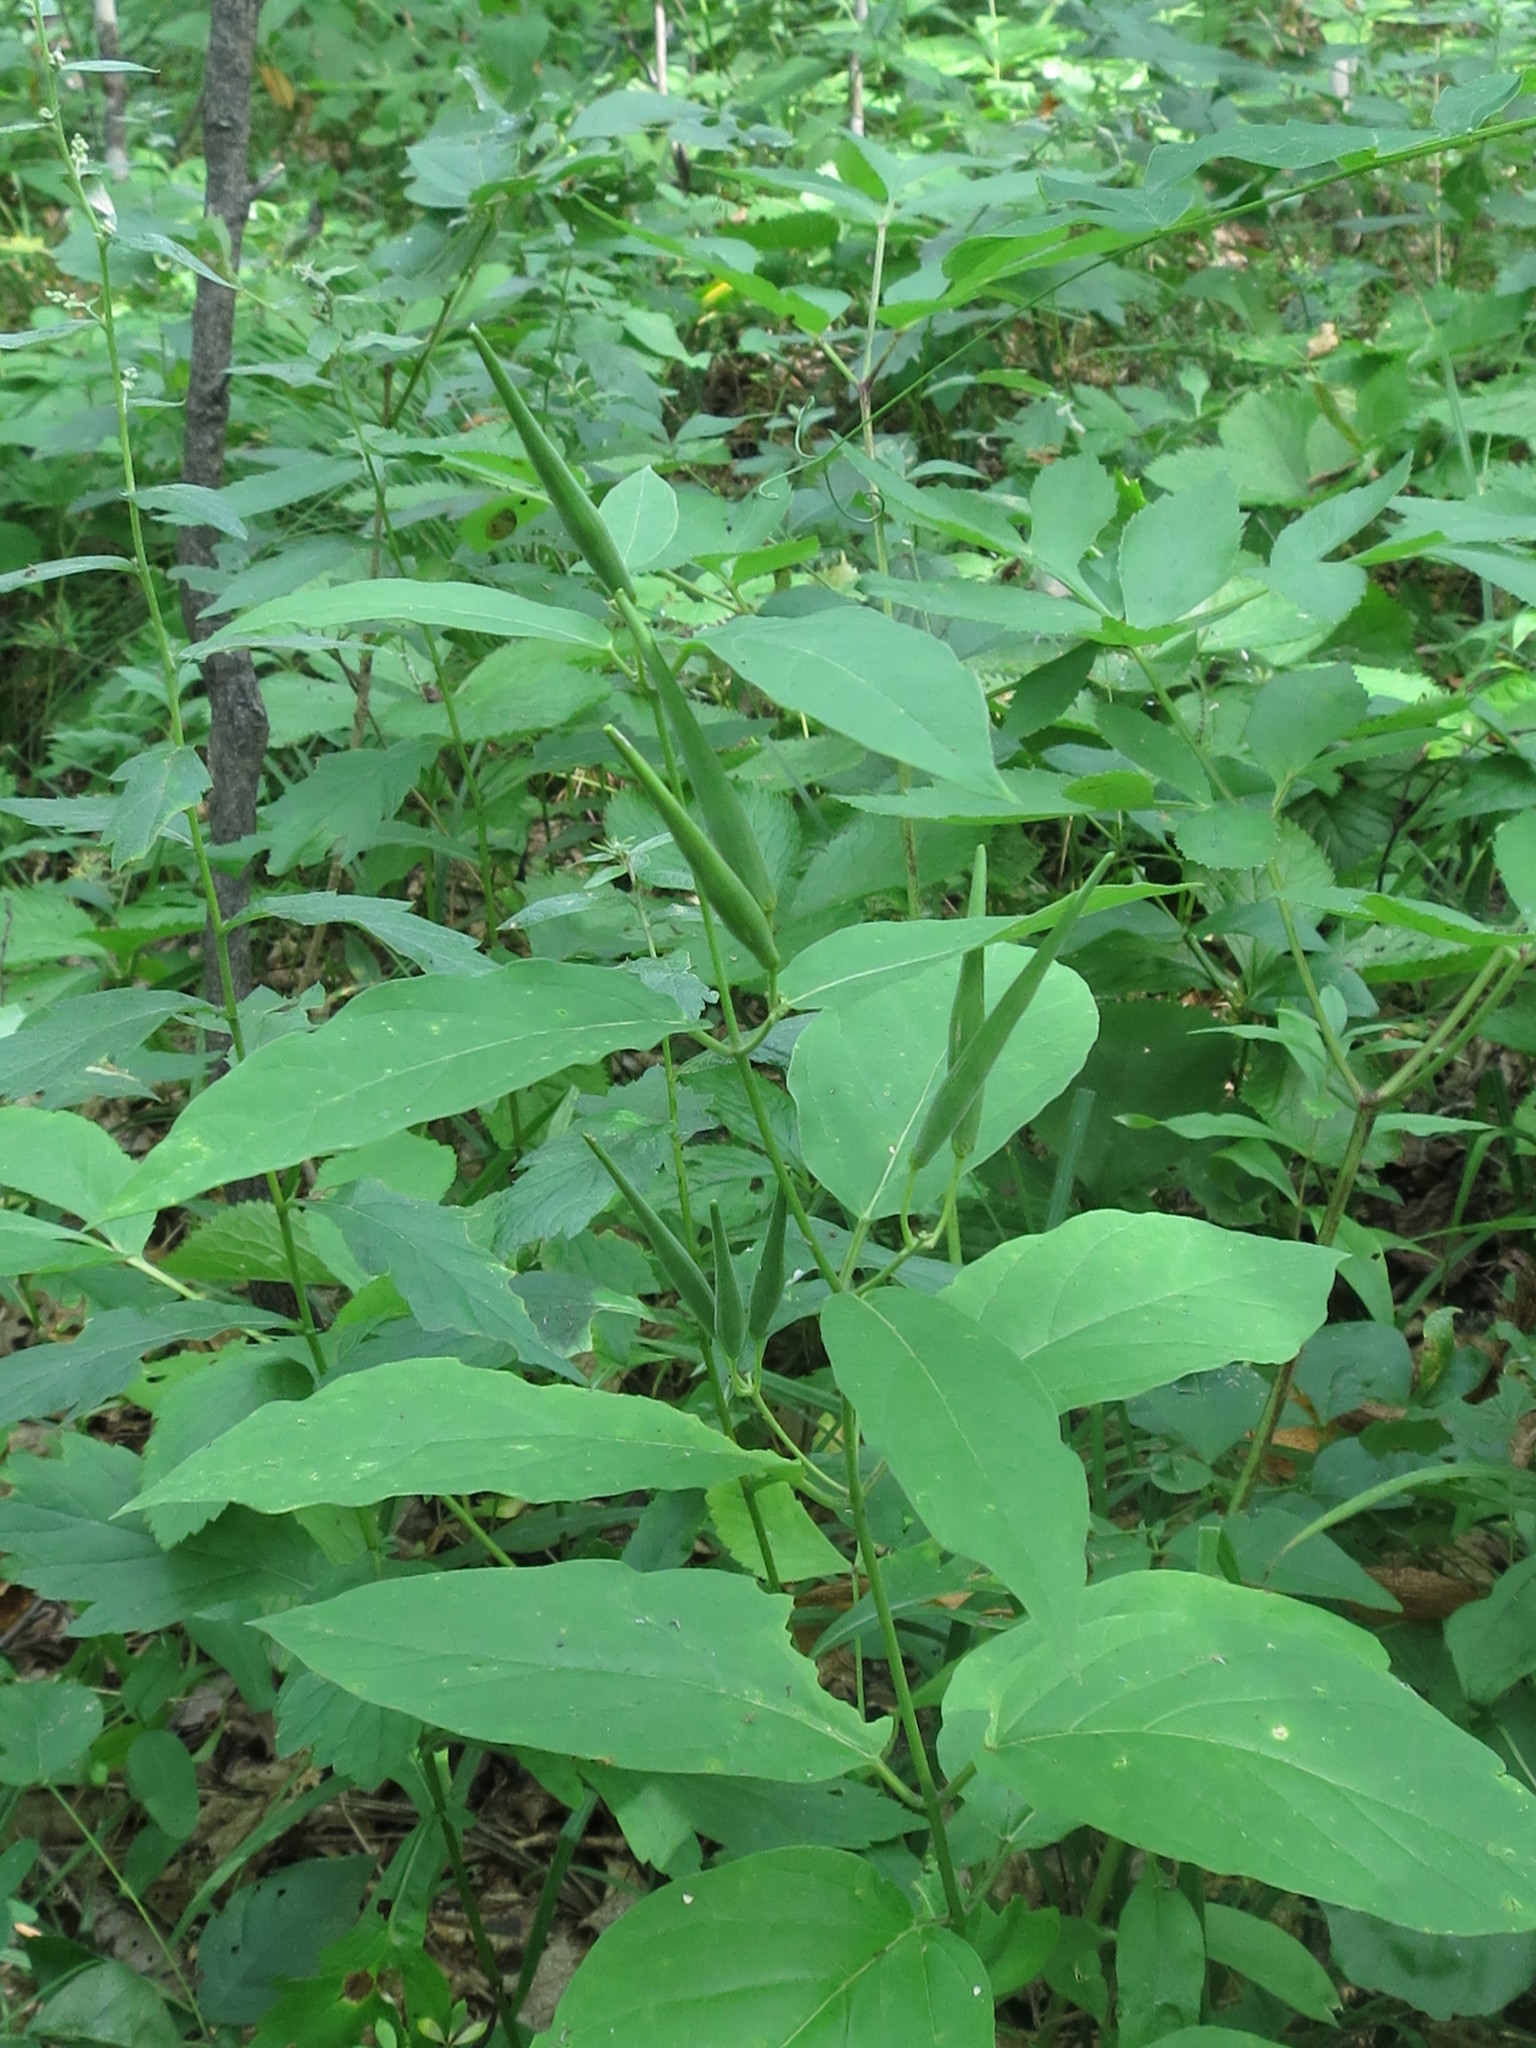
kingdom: Plantae
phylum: Tracheophyta
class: Magnoliopsida
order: Gentianales
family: Apocynaceae
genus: Vincetoxicum
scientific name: Vincetoxicum ascyrifolium
